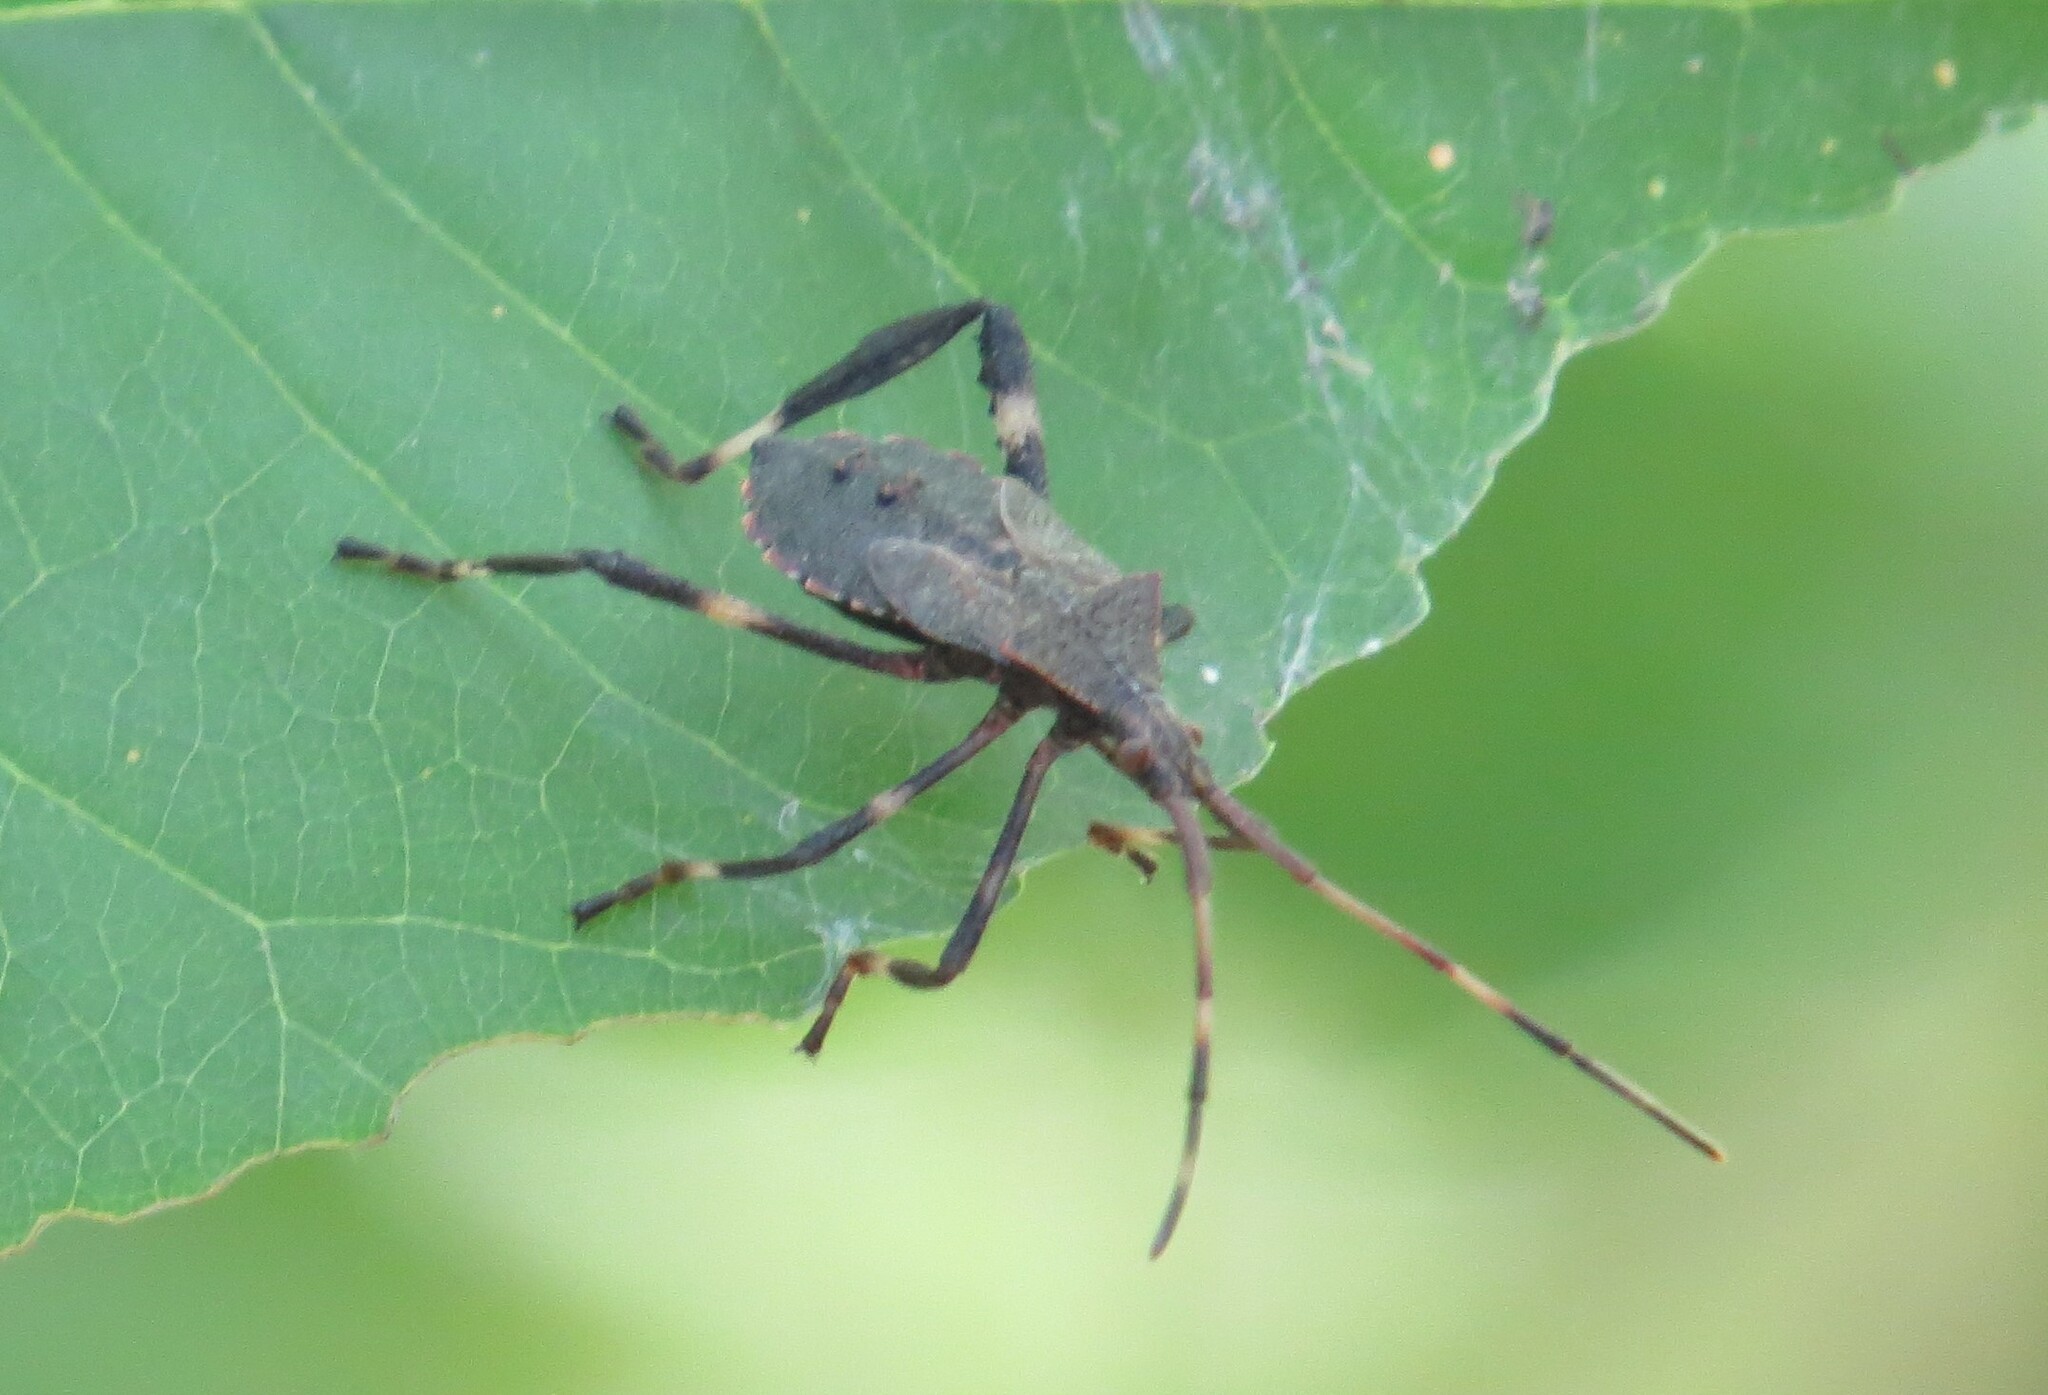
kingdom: Animalia
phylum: Arthropoda
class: Insecta
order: Hemiptera
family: Coreidae
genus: Acanthocephala
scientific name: Acanthocephala terminalis
